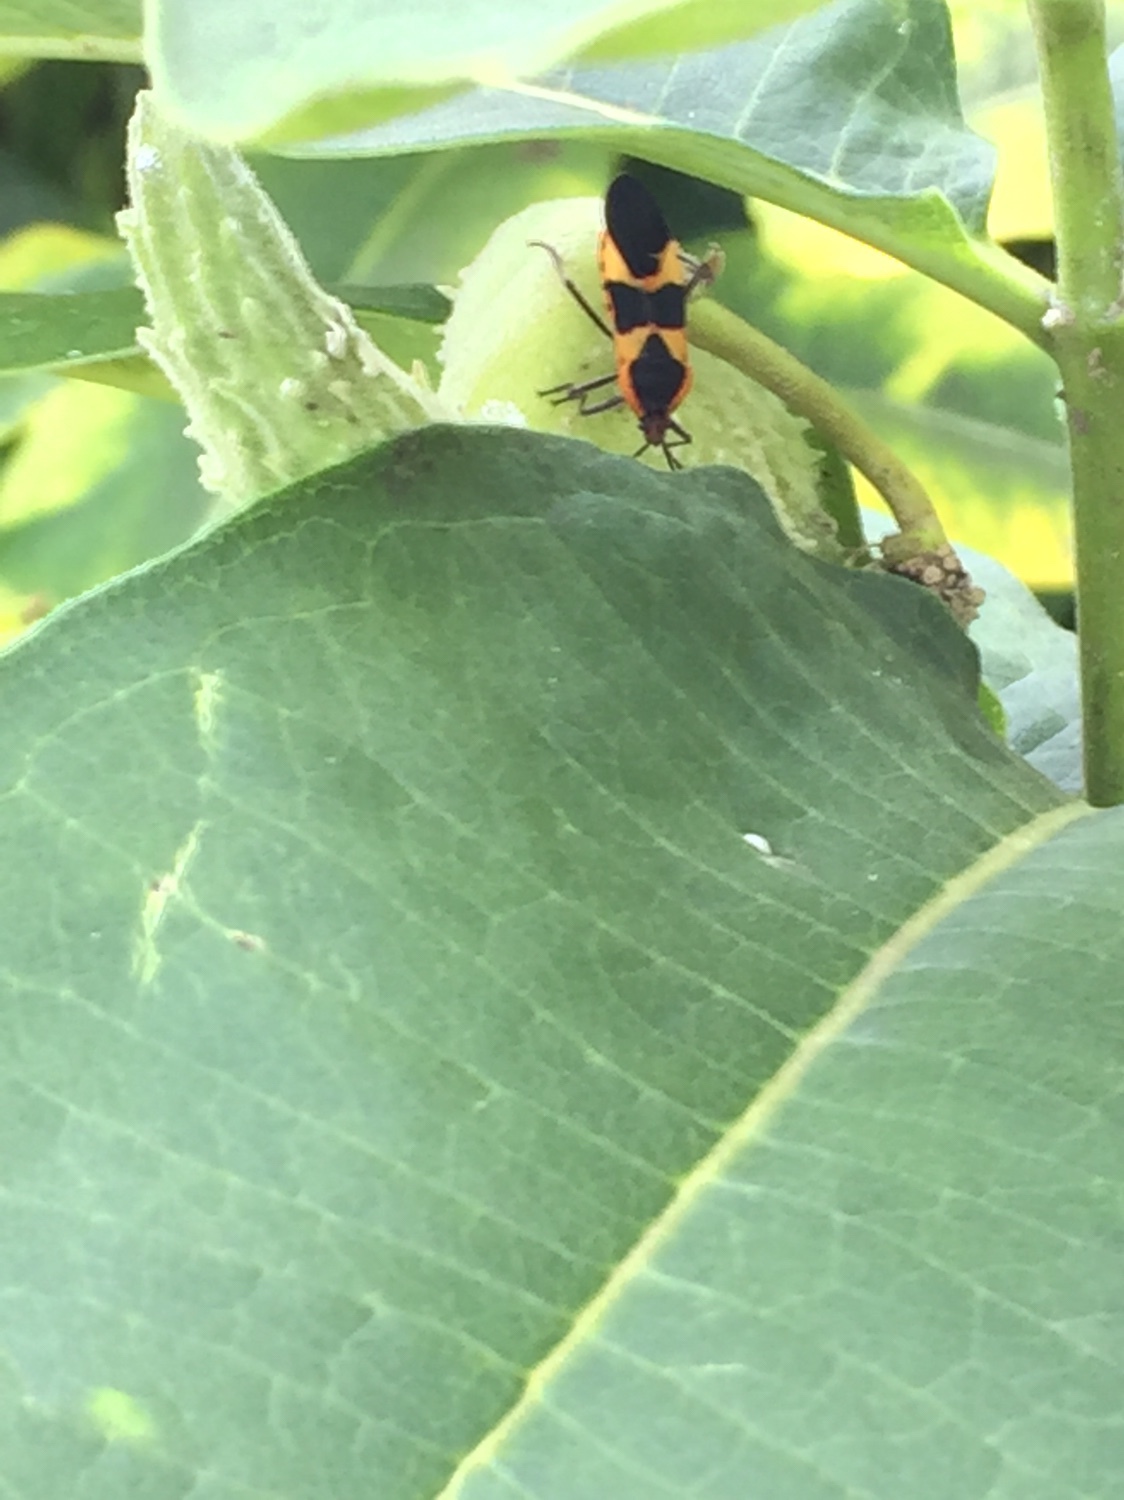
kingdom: Animalia
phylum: Arthropoda
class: Insecta
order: Hemiptera
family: Lygaeidae
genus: Oncopeltus
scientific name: Oncopeltus fasciatus
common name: Large milkweed bug
